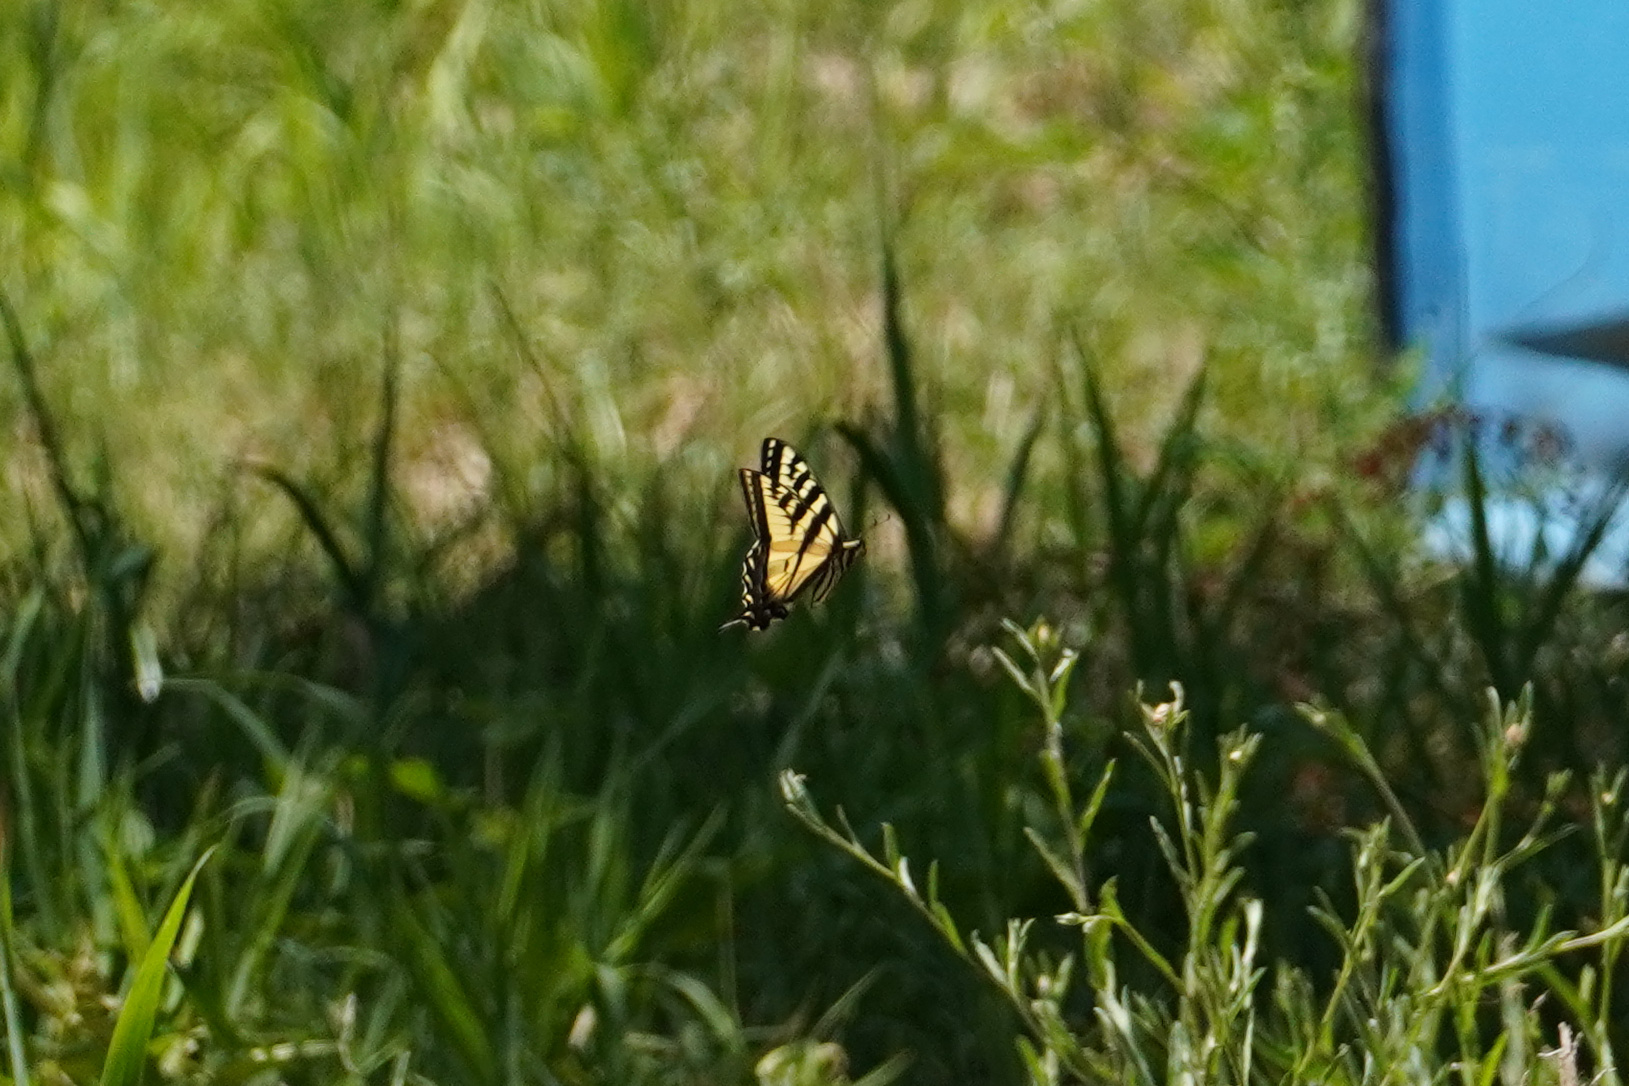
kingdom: Animalia
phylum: Arthropoda
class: Insecta
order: Lepidoptera
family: Papilionidae
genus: Papilio
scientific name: Papilio rutulus
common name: Western tiger swallowtail
